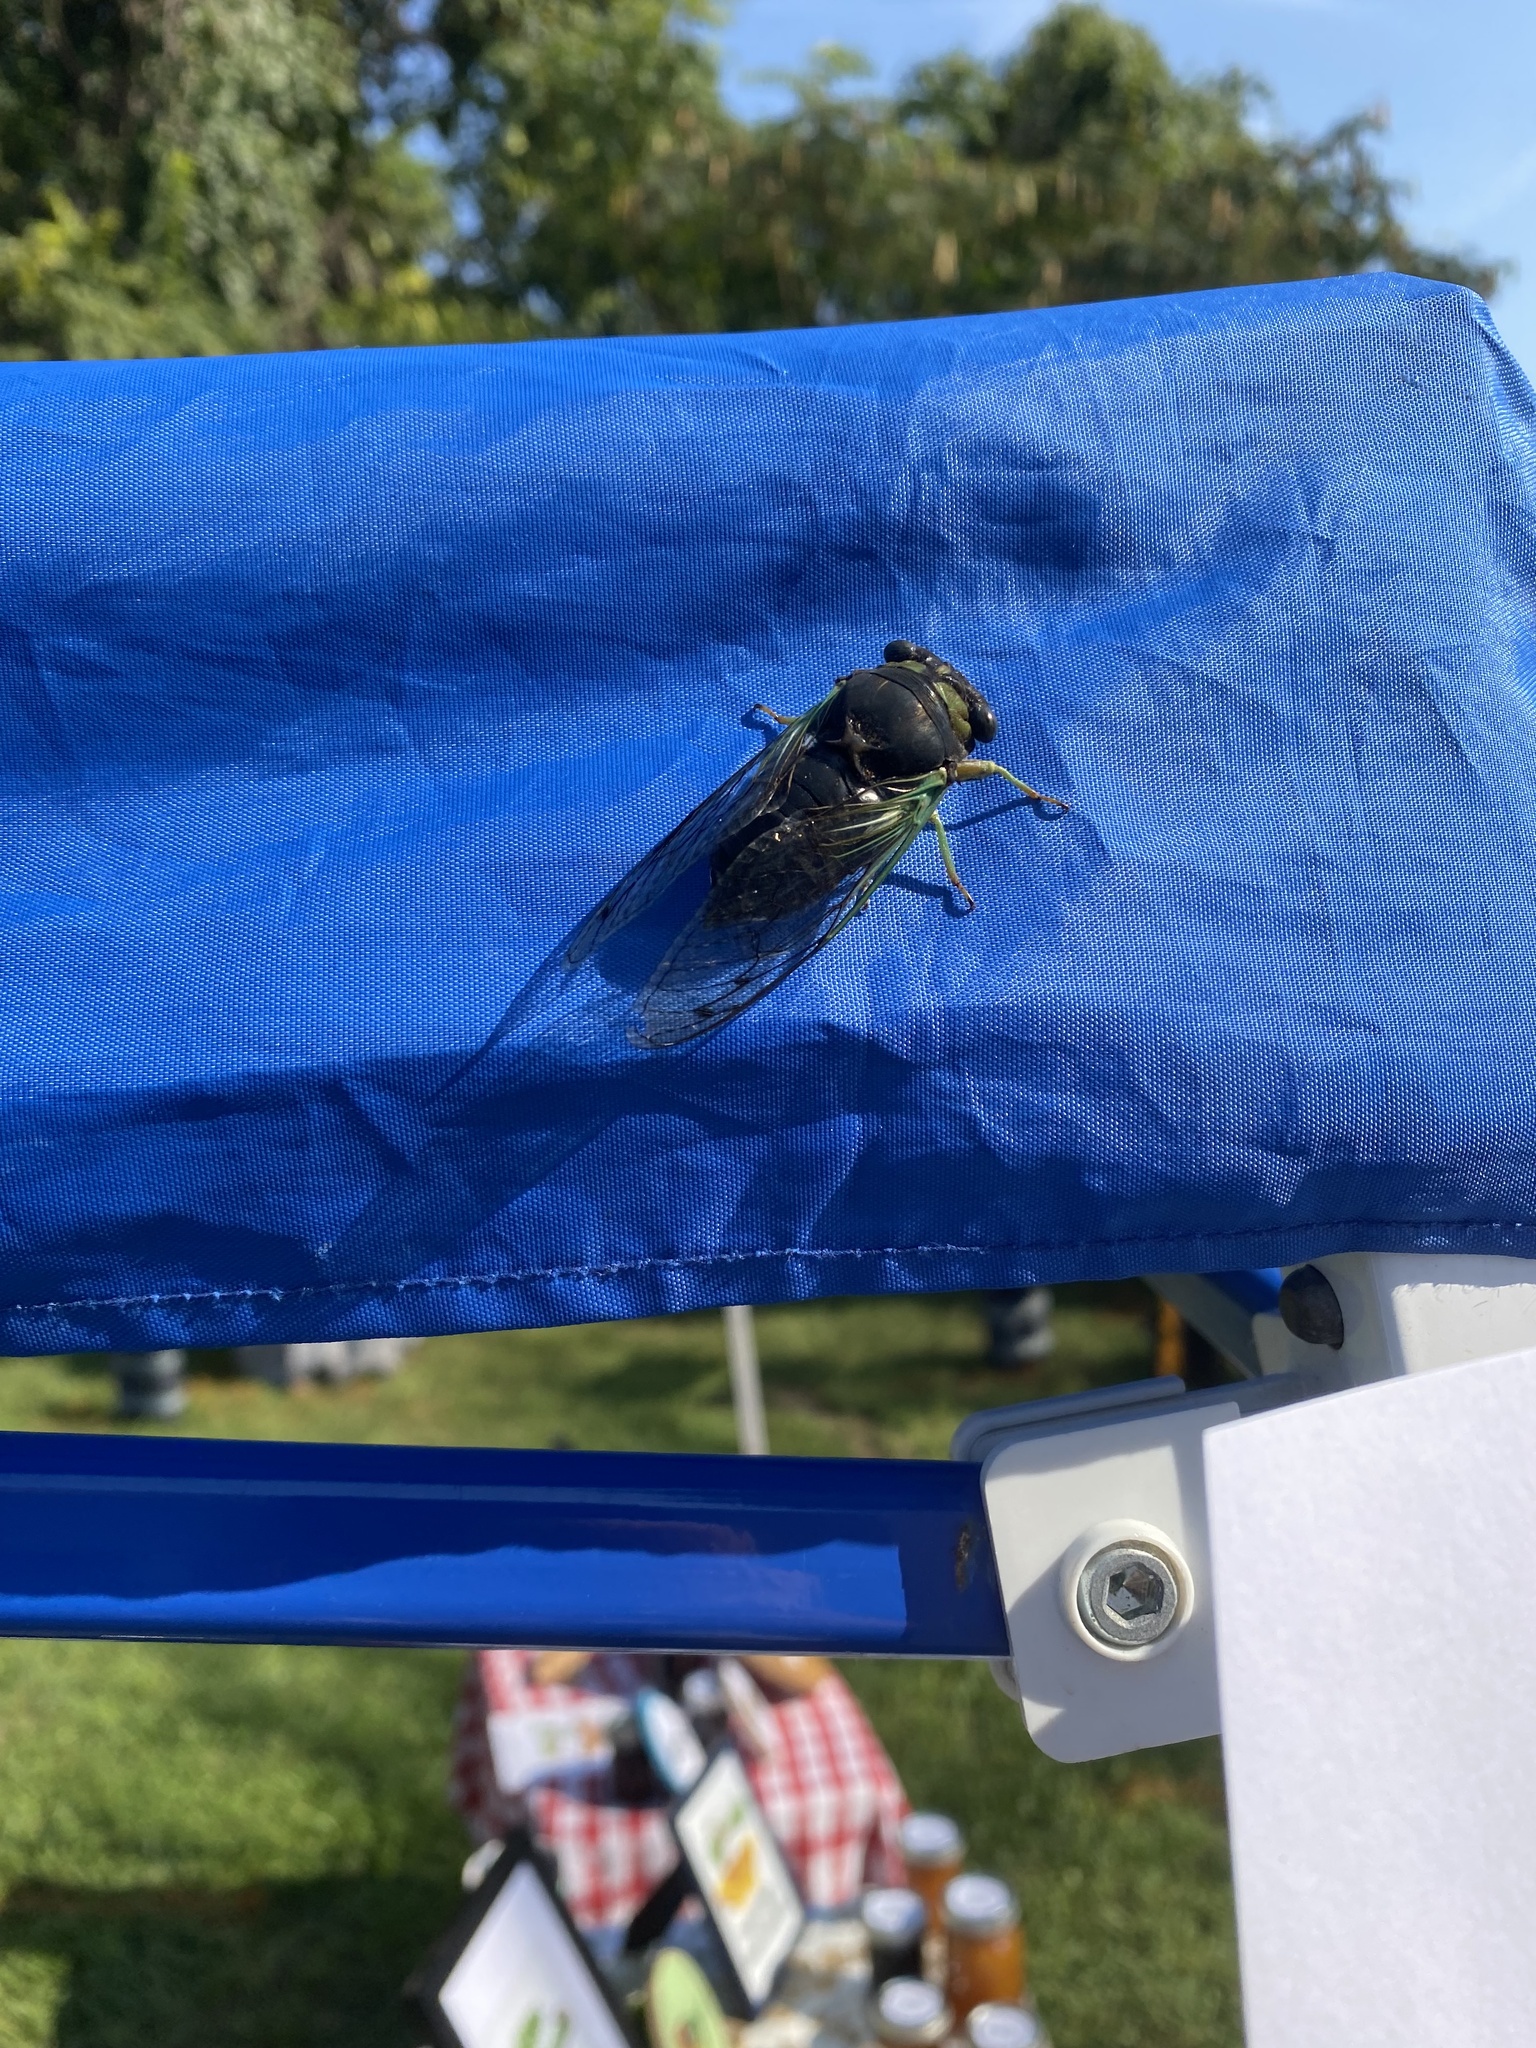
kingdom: Animalia
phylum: Arthropoda
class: Insecta
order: Hemiptera
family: Cicadidae
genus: Neotibicen
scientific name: Neotibicen tibicen
